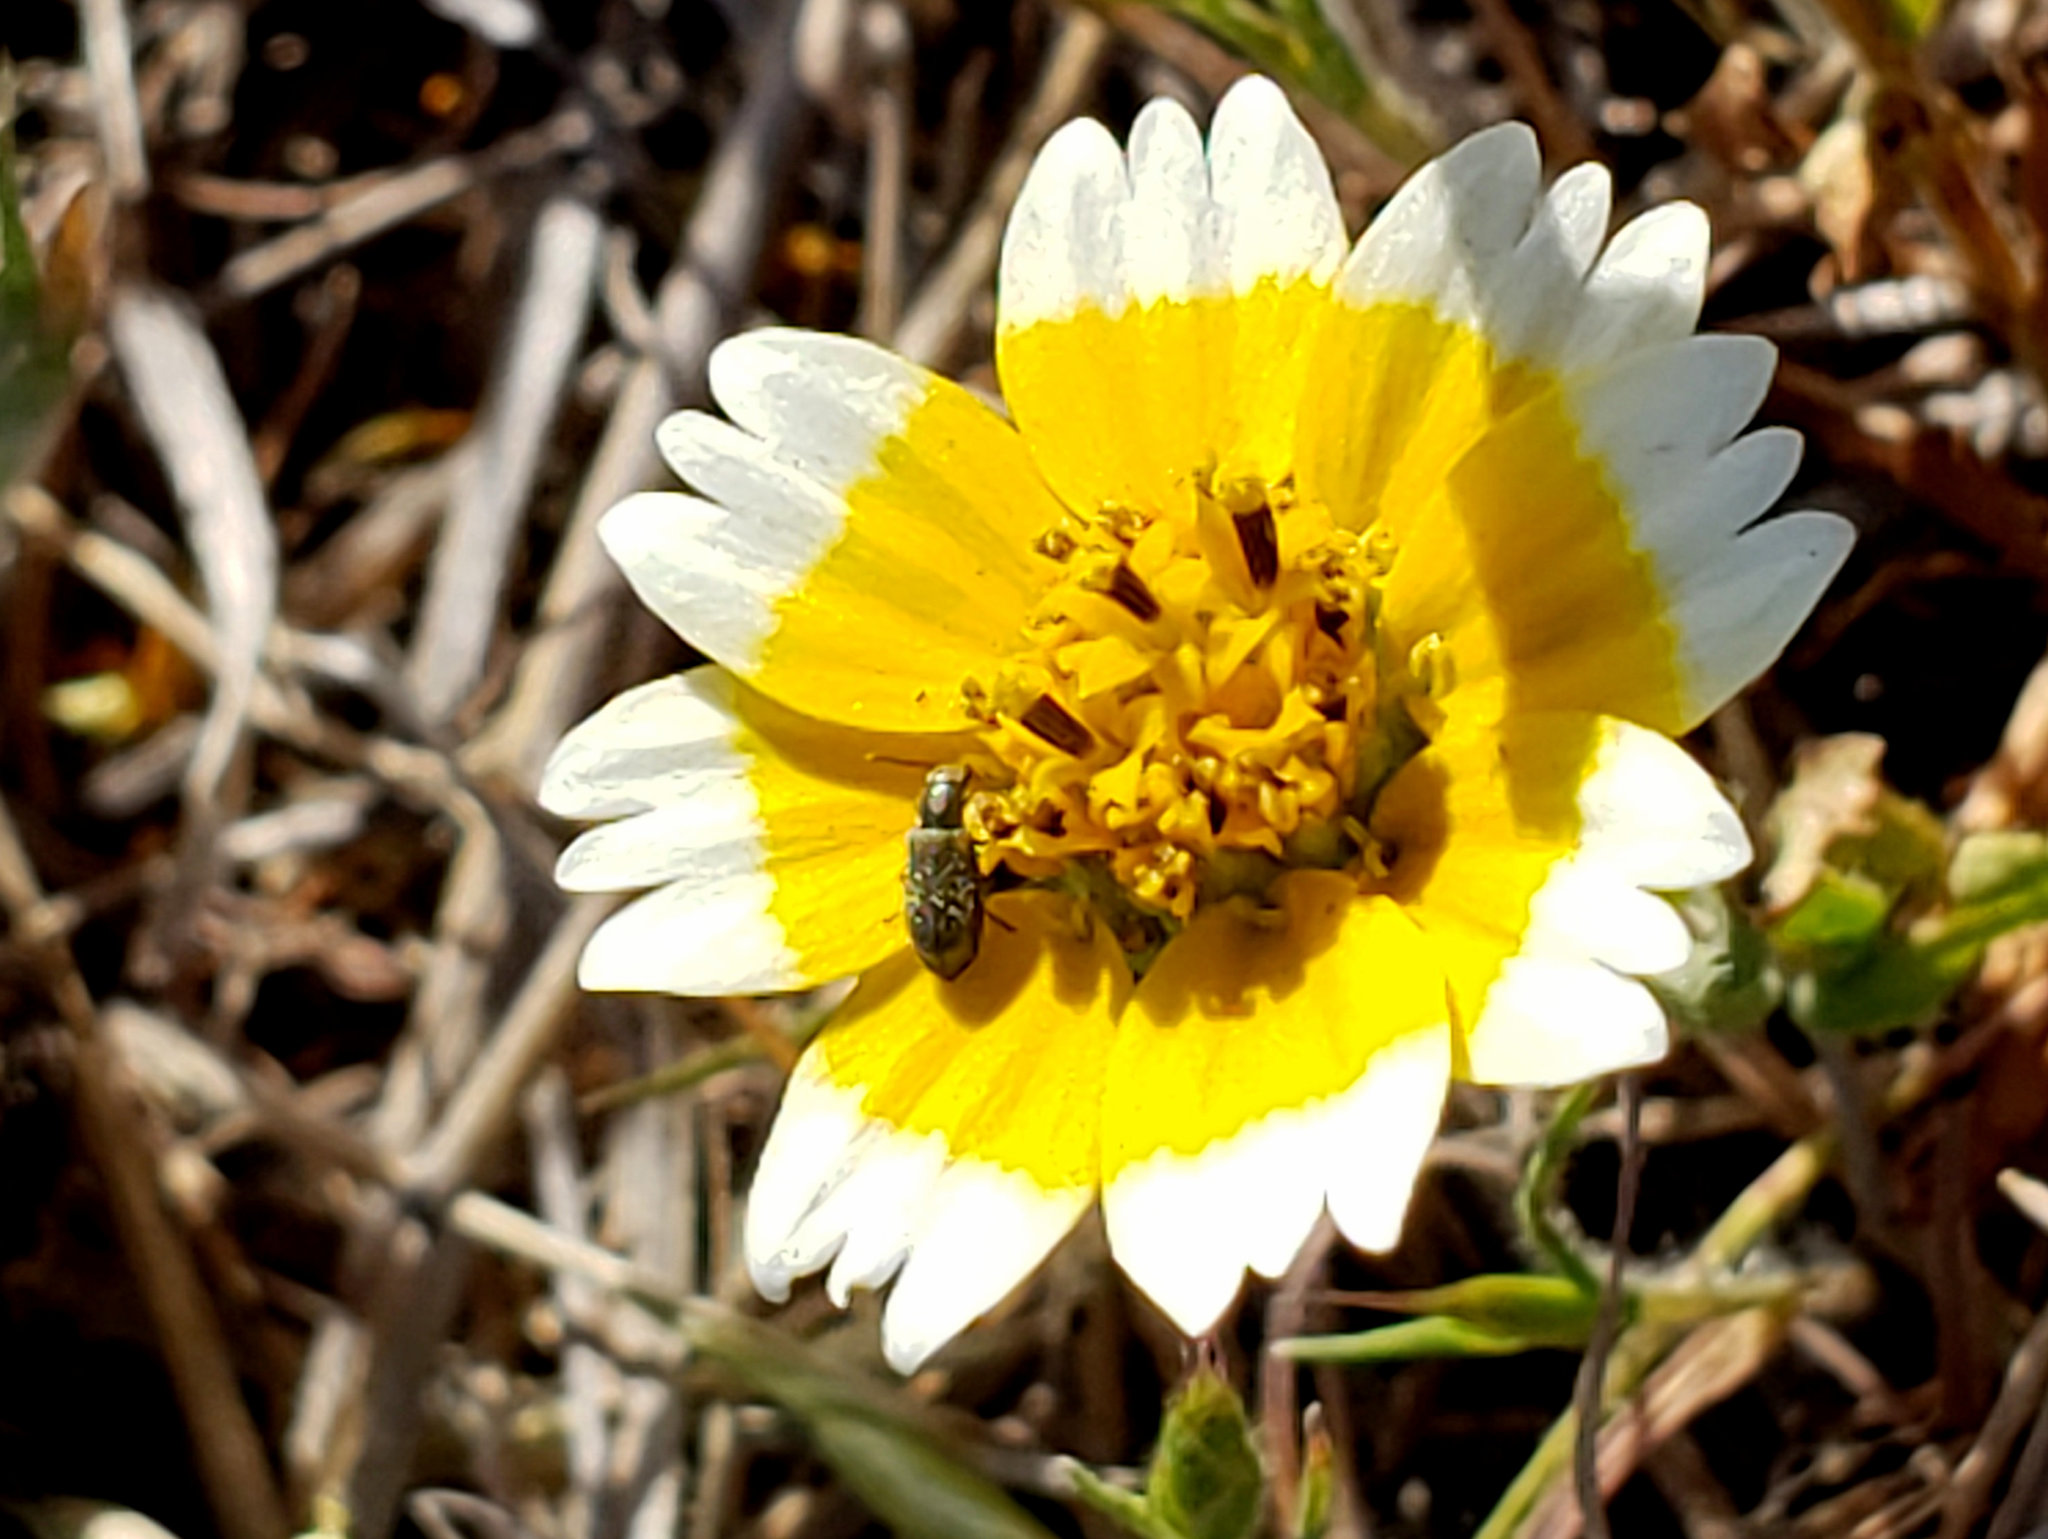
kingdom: Plantae
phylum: Tracheophyta
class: Magnoliopsida
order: Asterales
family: Asteraceae
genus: Layia
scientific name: Layia chrysanthemoides
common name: Smooth layia
